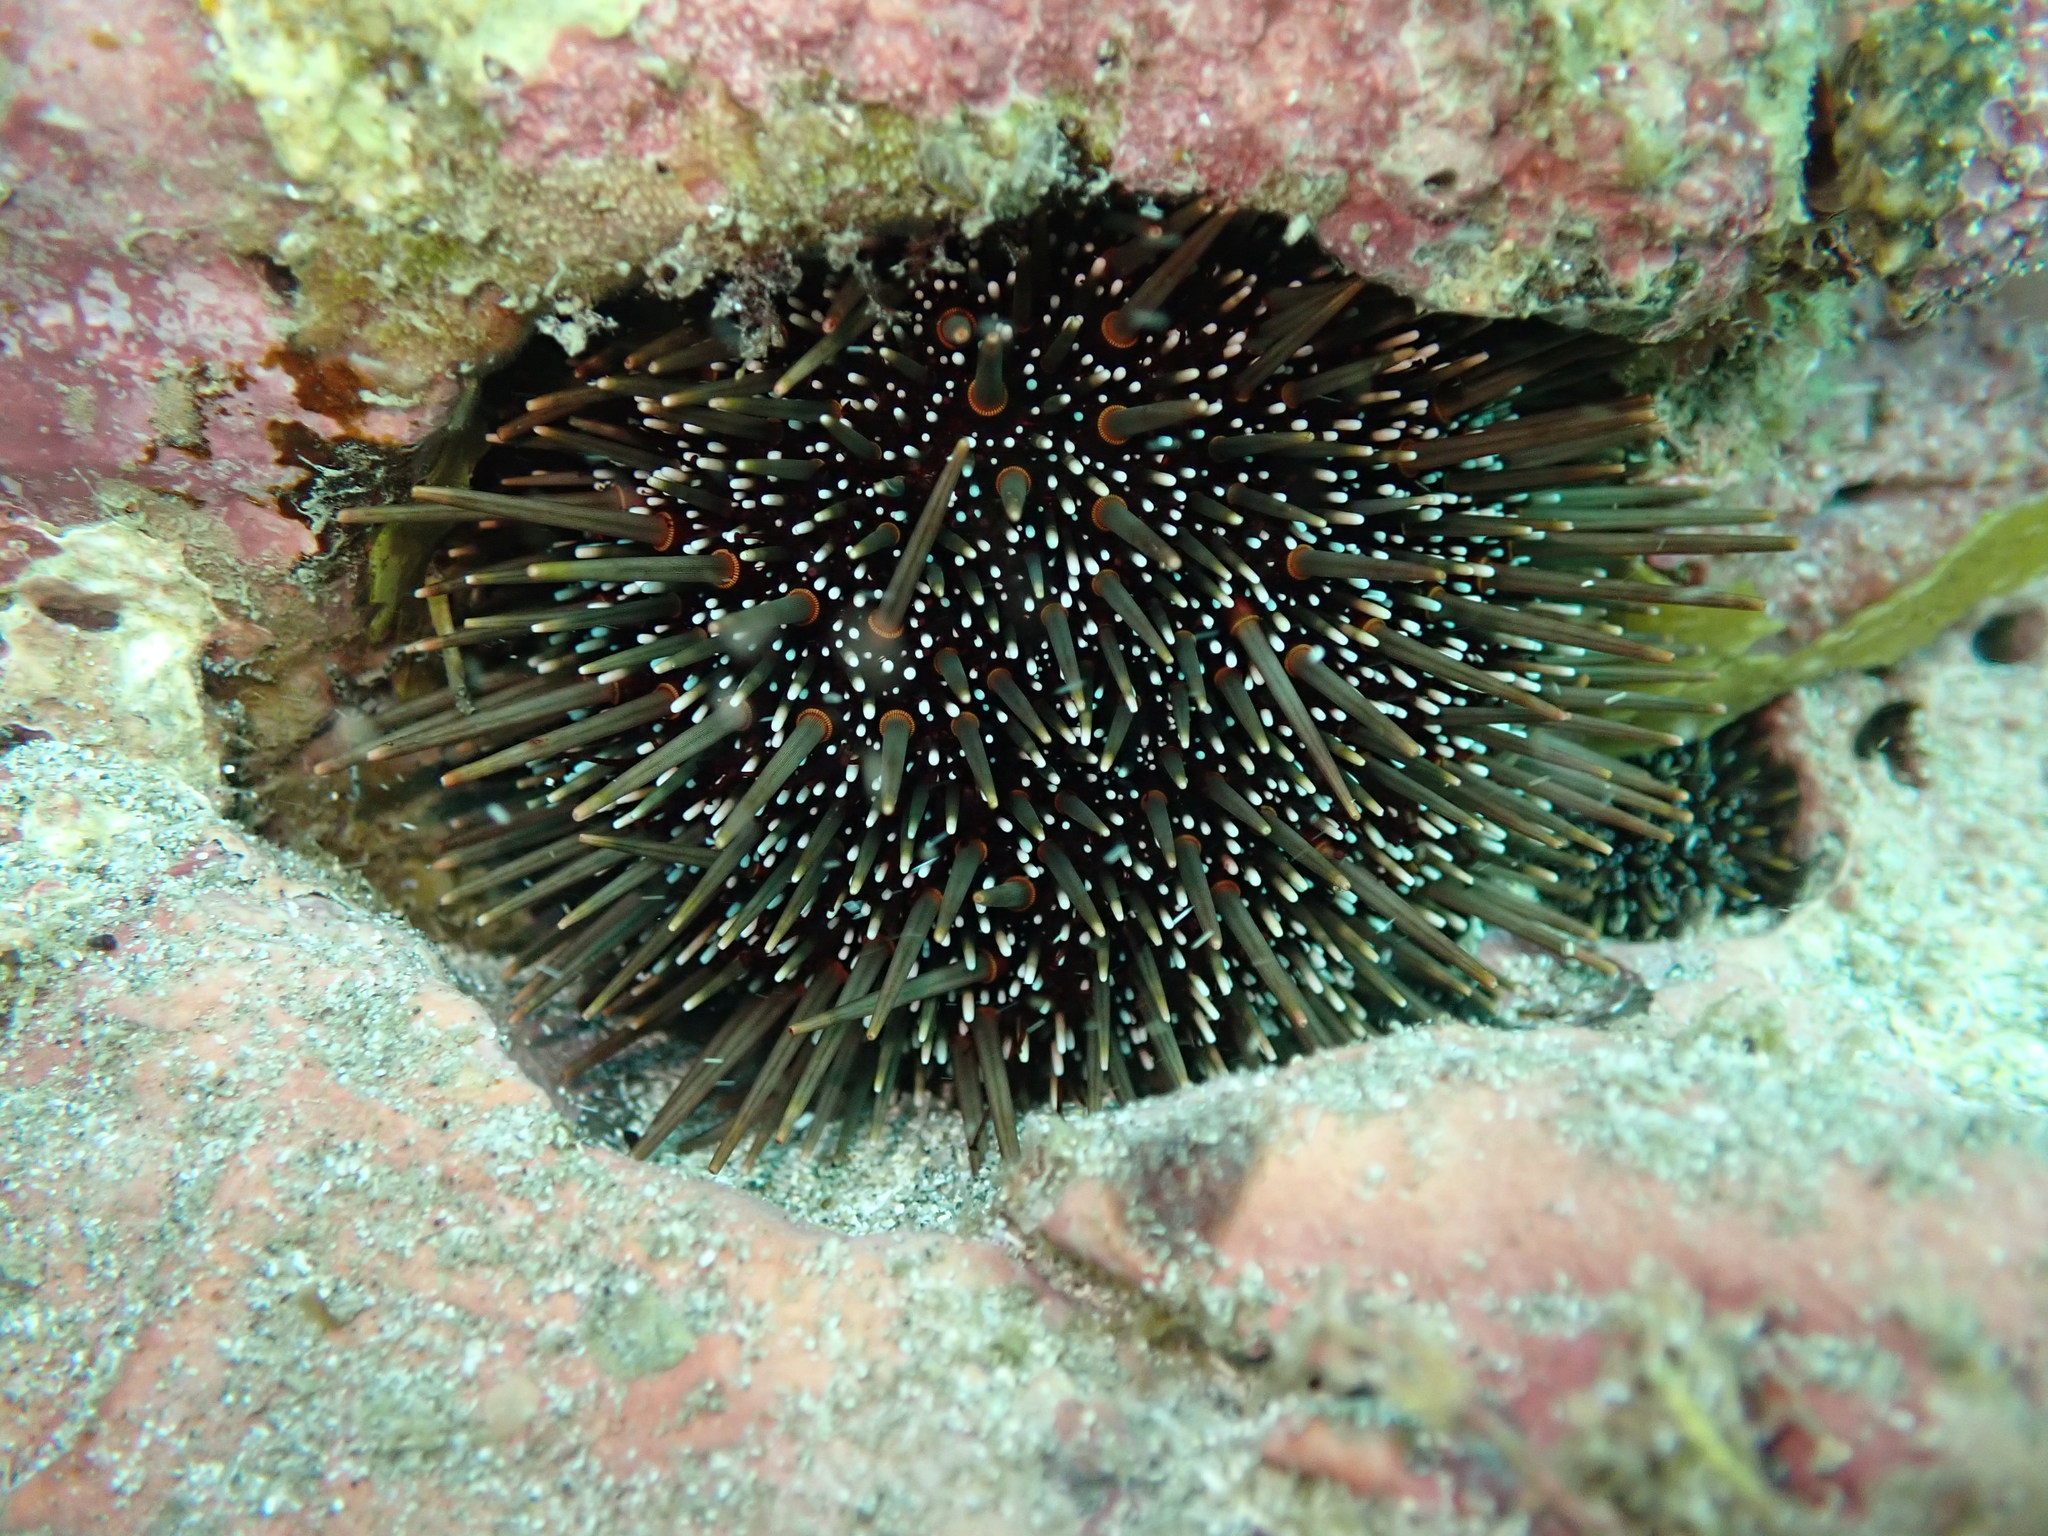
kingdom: Animalia
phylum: Echinodermata
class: Echinoidea
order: Camarodonta
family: Echinometridae
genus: Evechinus
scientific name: Evechinus chloroticus
